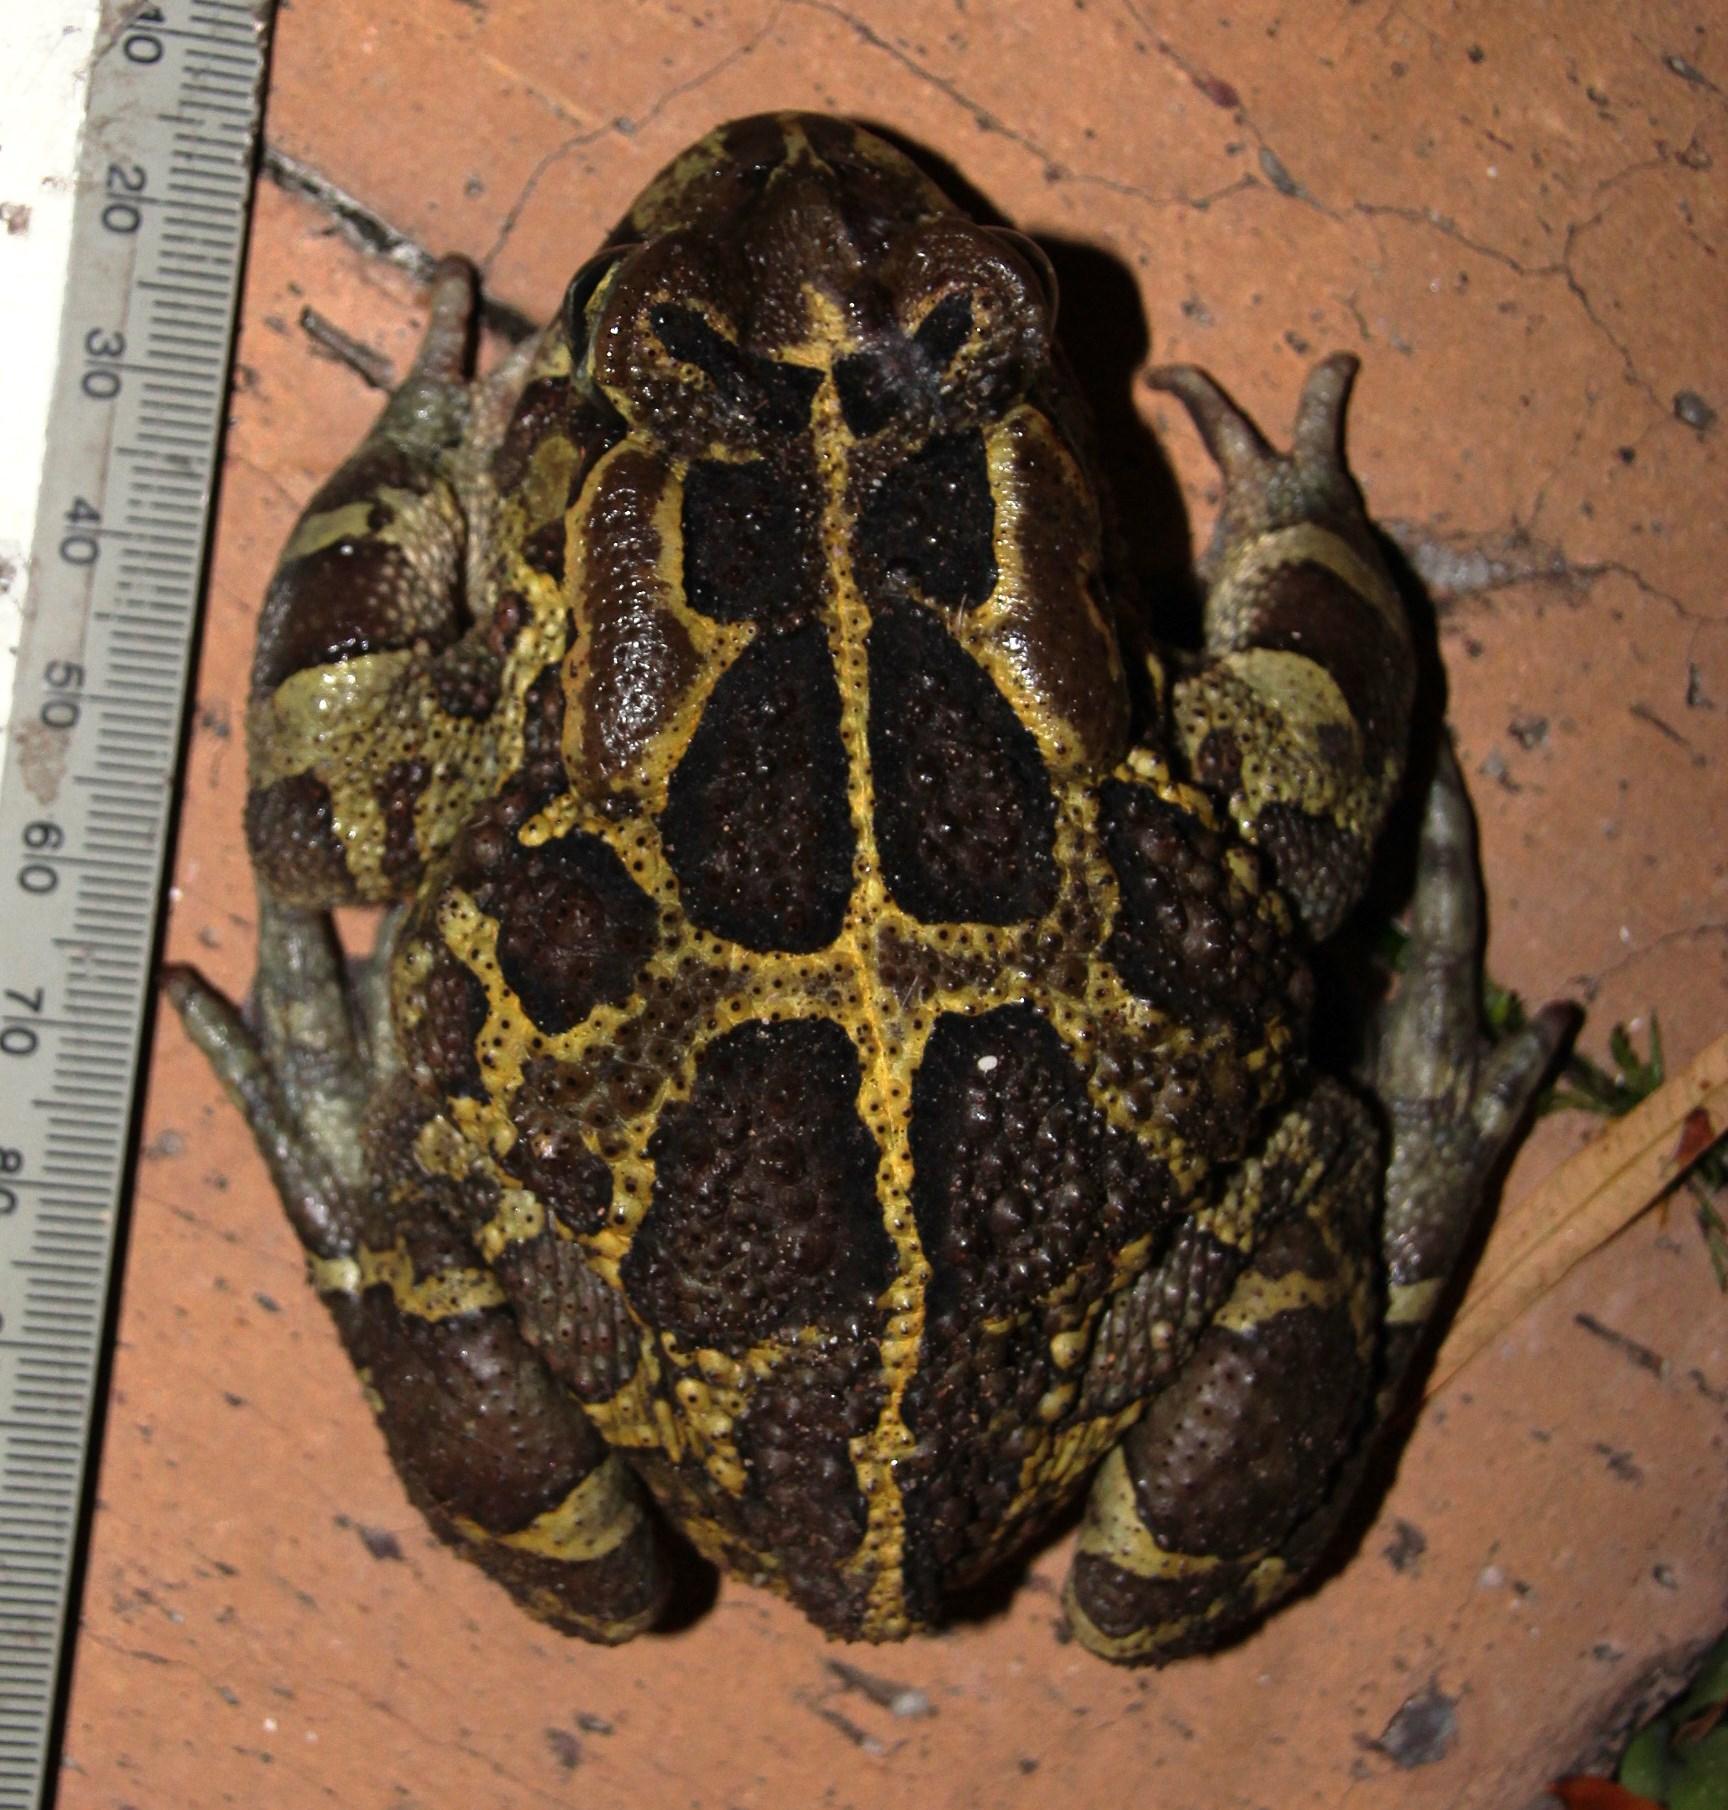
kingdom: Animalia
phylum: Chordata
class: Amphibia
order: Anura
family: Bufonidae
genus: Sclerophrys
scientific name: Sclerophrys pantherina
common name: Panther toad
